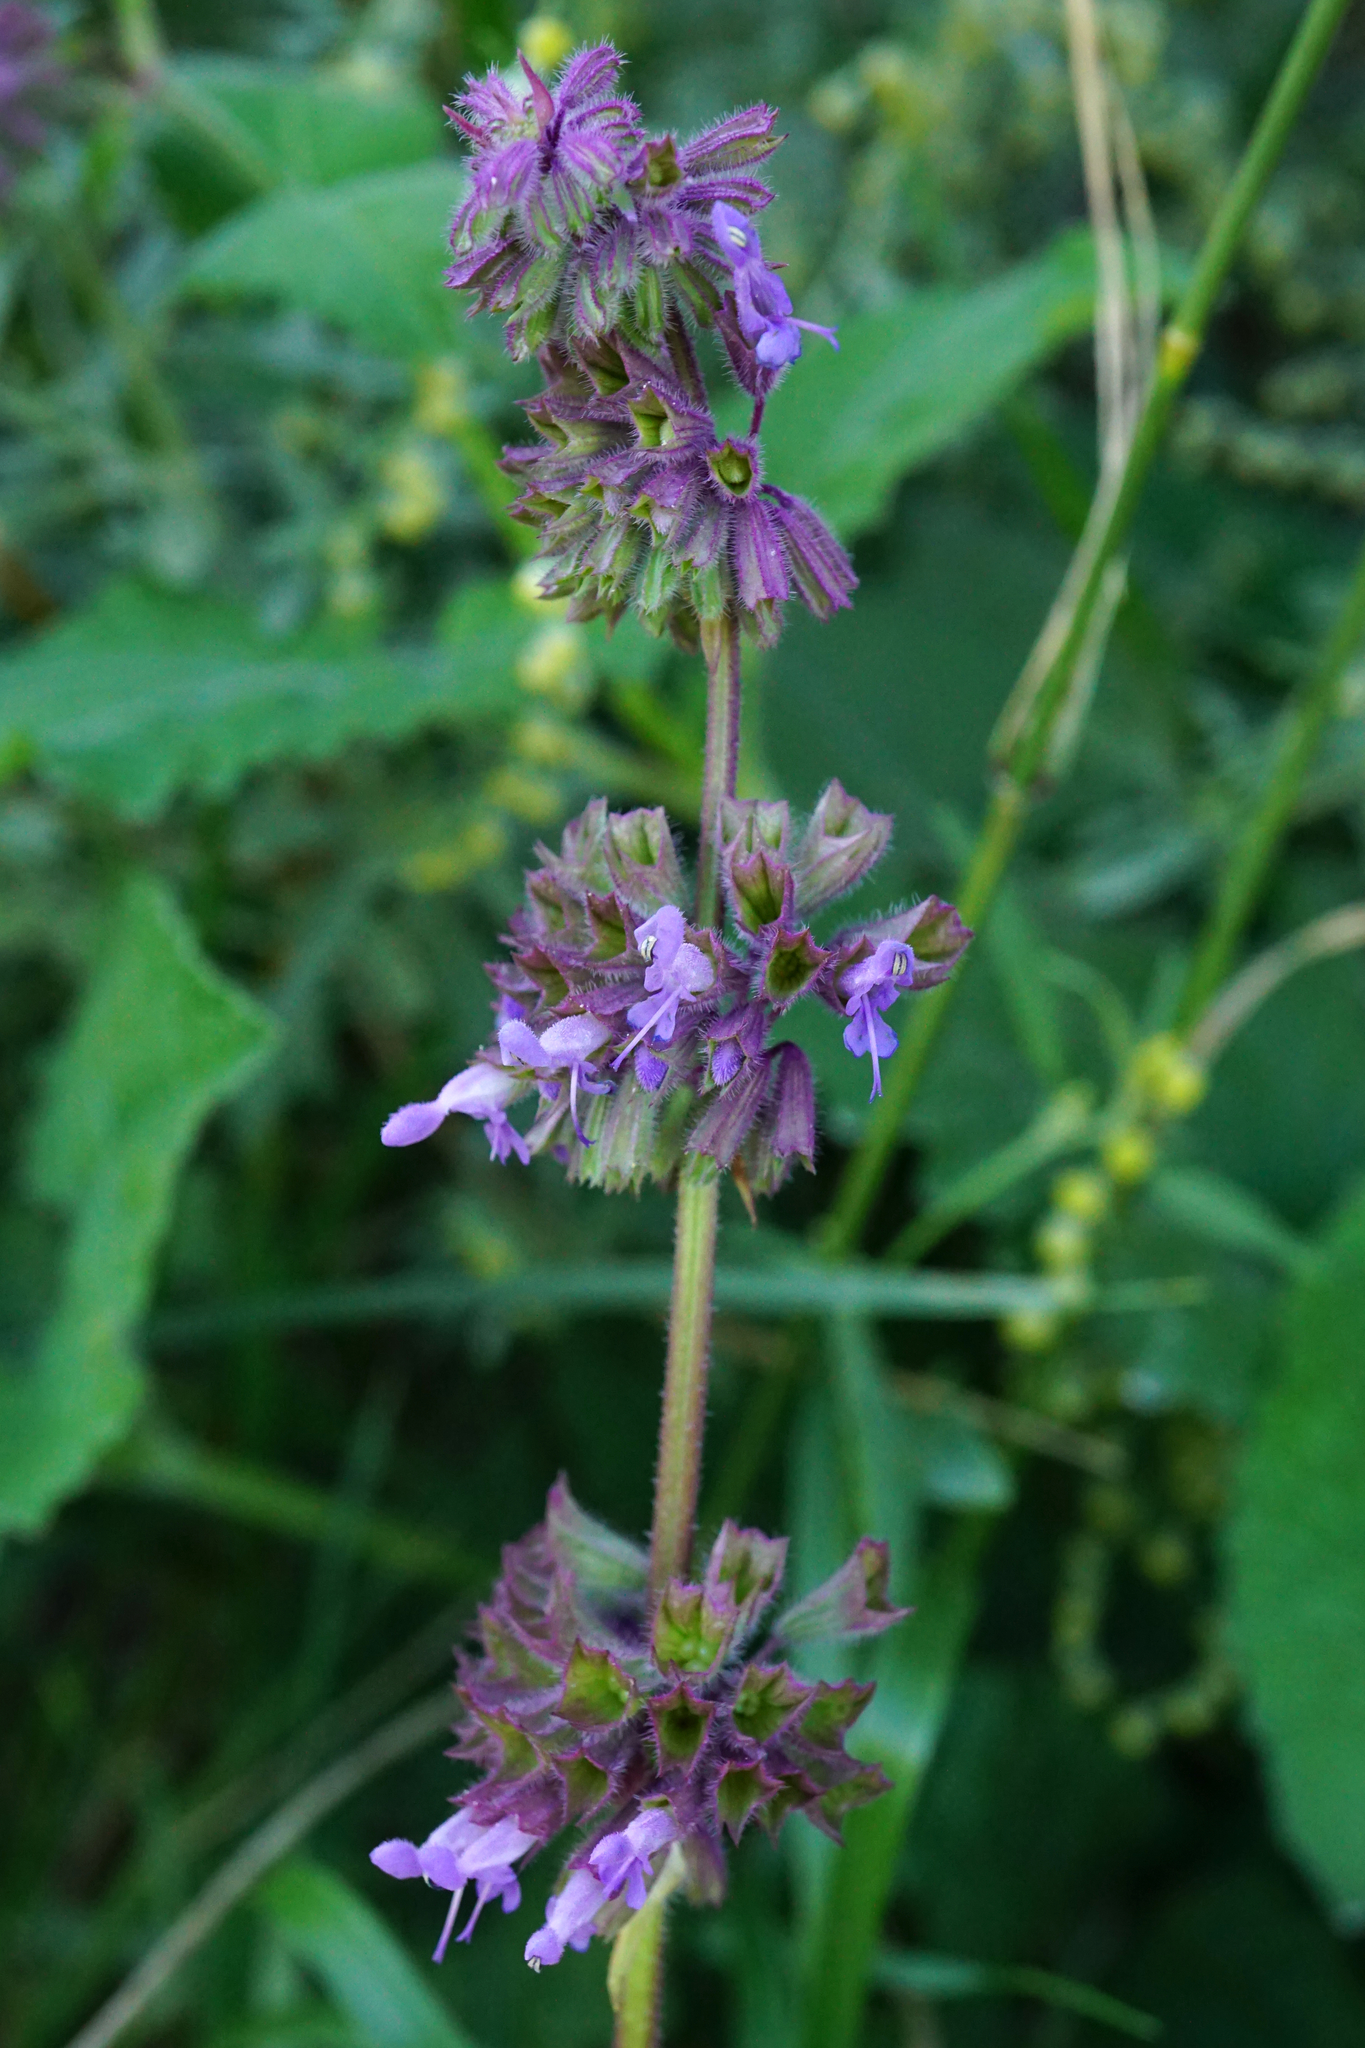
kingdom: Plantae
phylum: Tracheophyta
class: Magnoliopsida
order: Lamiales
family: Lamiaceae
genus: Salvia
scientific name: Salvia verticillata
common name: Whorled clary
